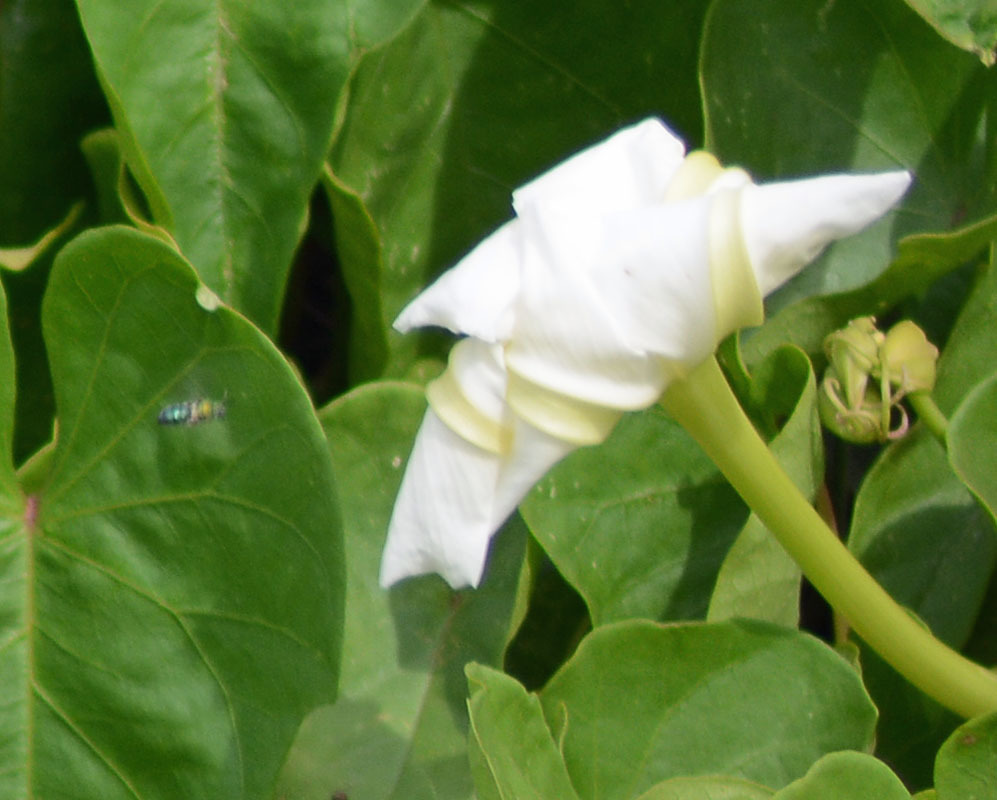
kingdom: Plantae
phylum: Tracheophyta
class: Magnoliopsida
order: Solanales
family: Convolvulaceae
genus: Ipomoea
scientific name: Ipomoea alba
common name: Moonflower
